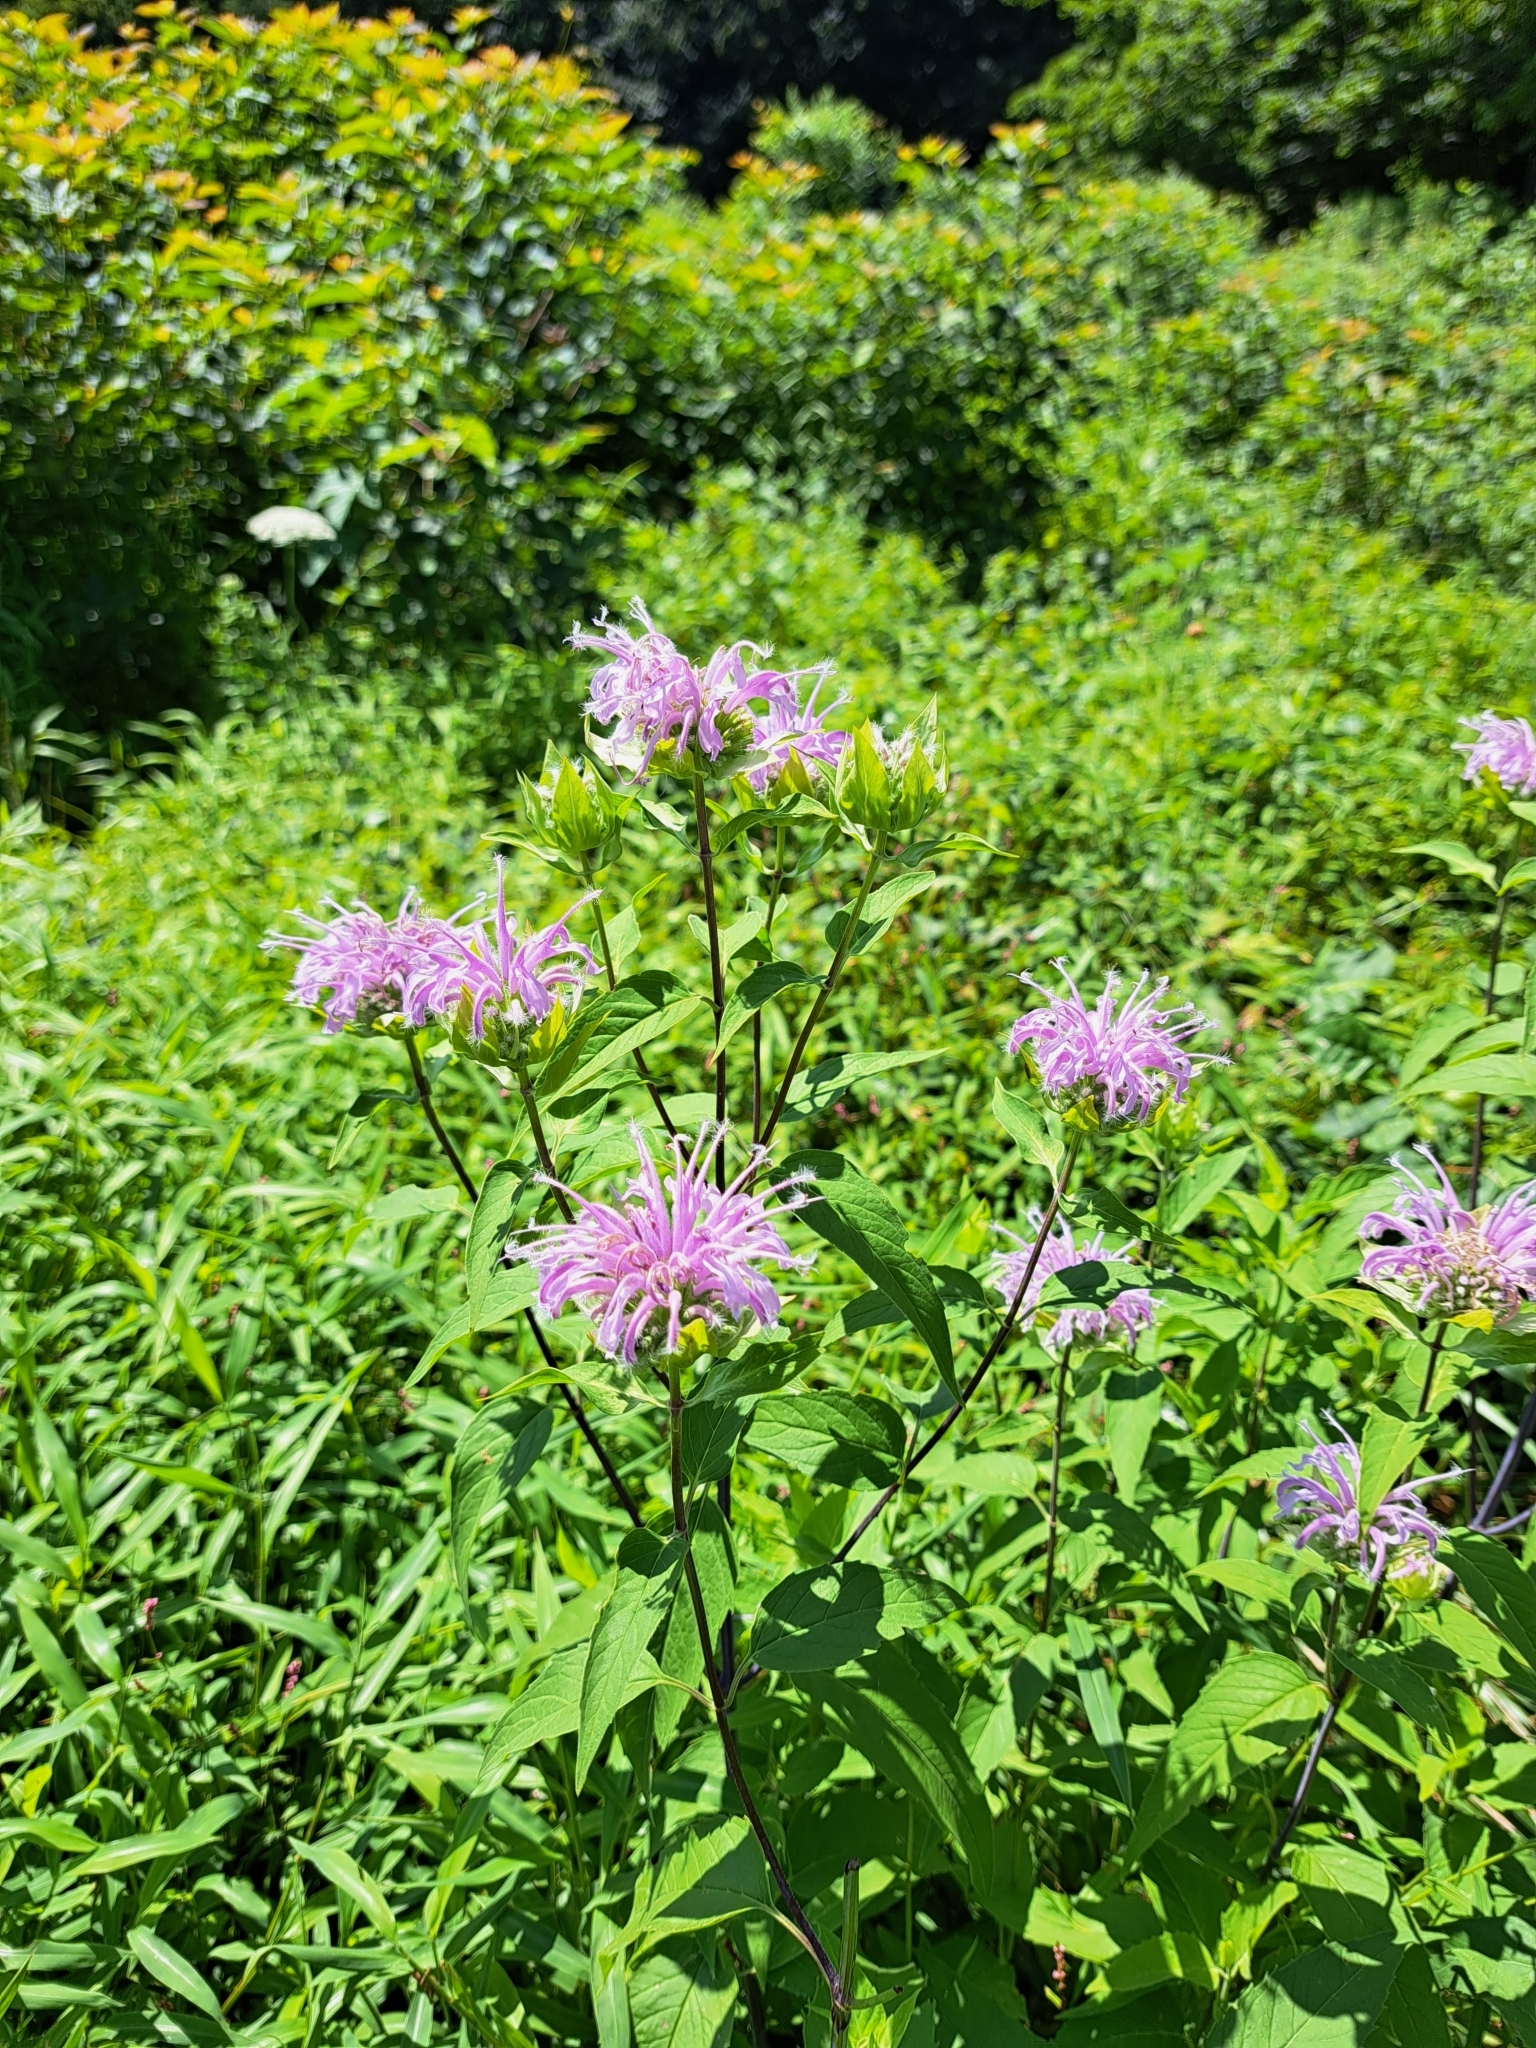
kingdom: Plantae
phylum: Tracheophyta
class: Magnoliopsida
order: Lamiales
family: Lamiaceae
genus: Monarda
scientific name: Monarda fistulosa
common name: Purple beebalm
